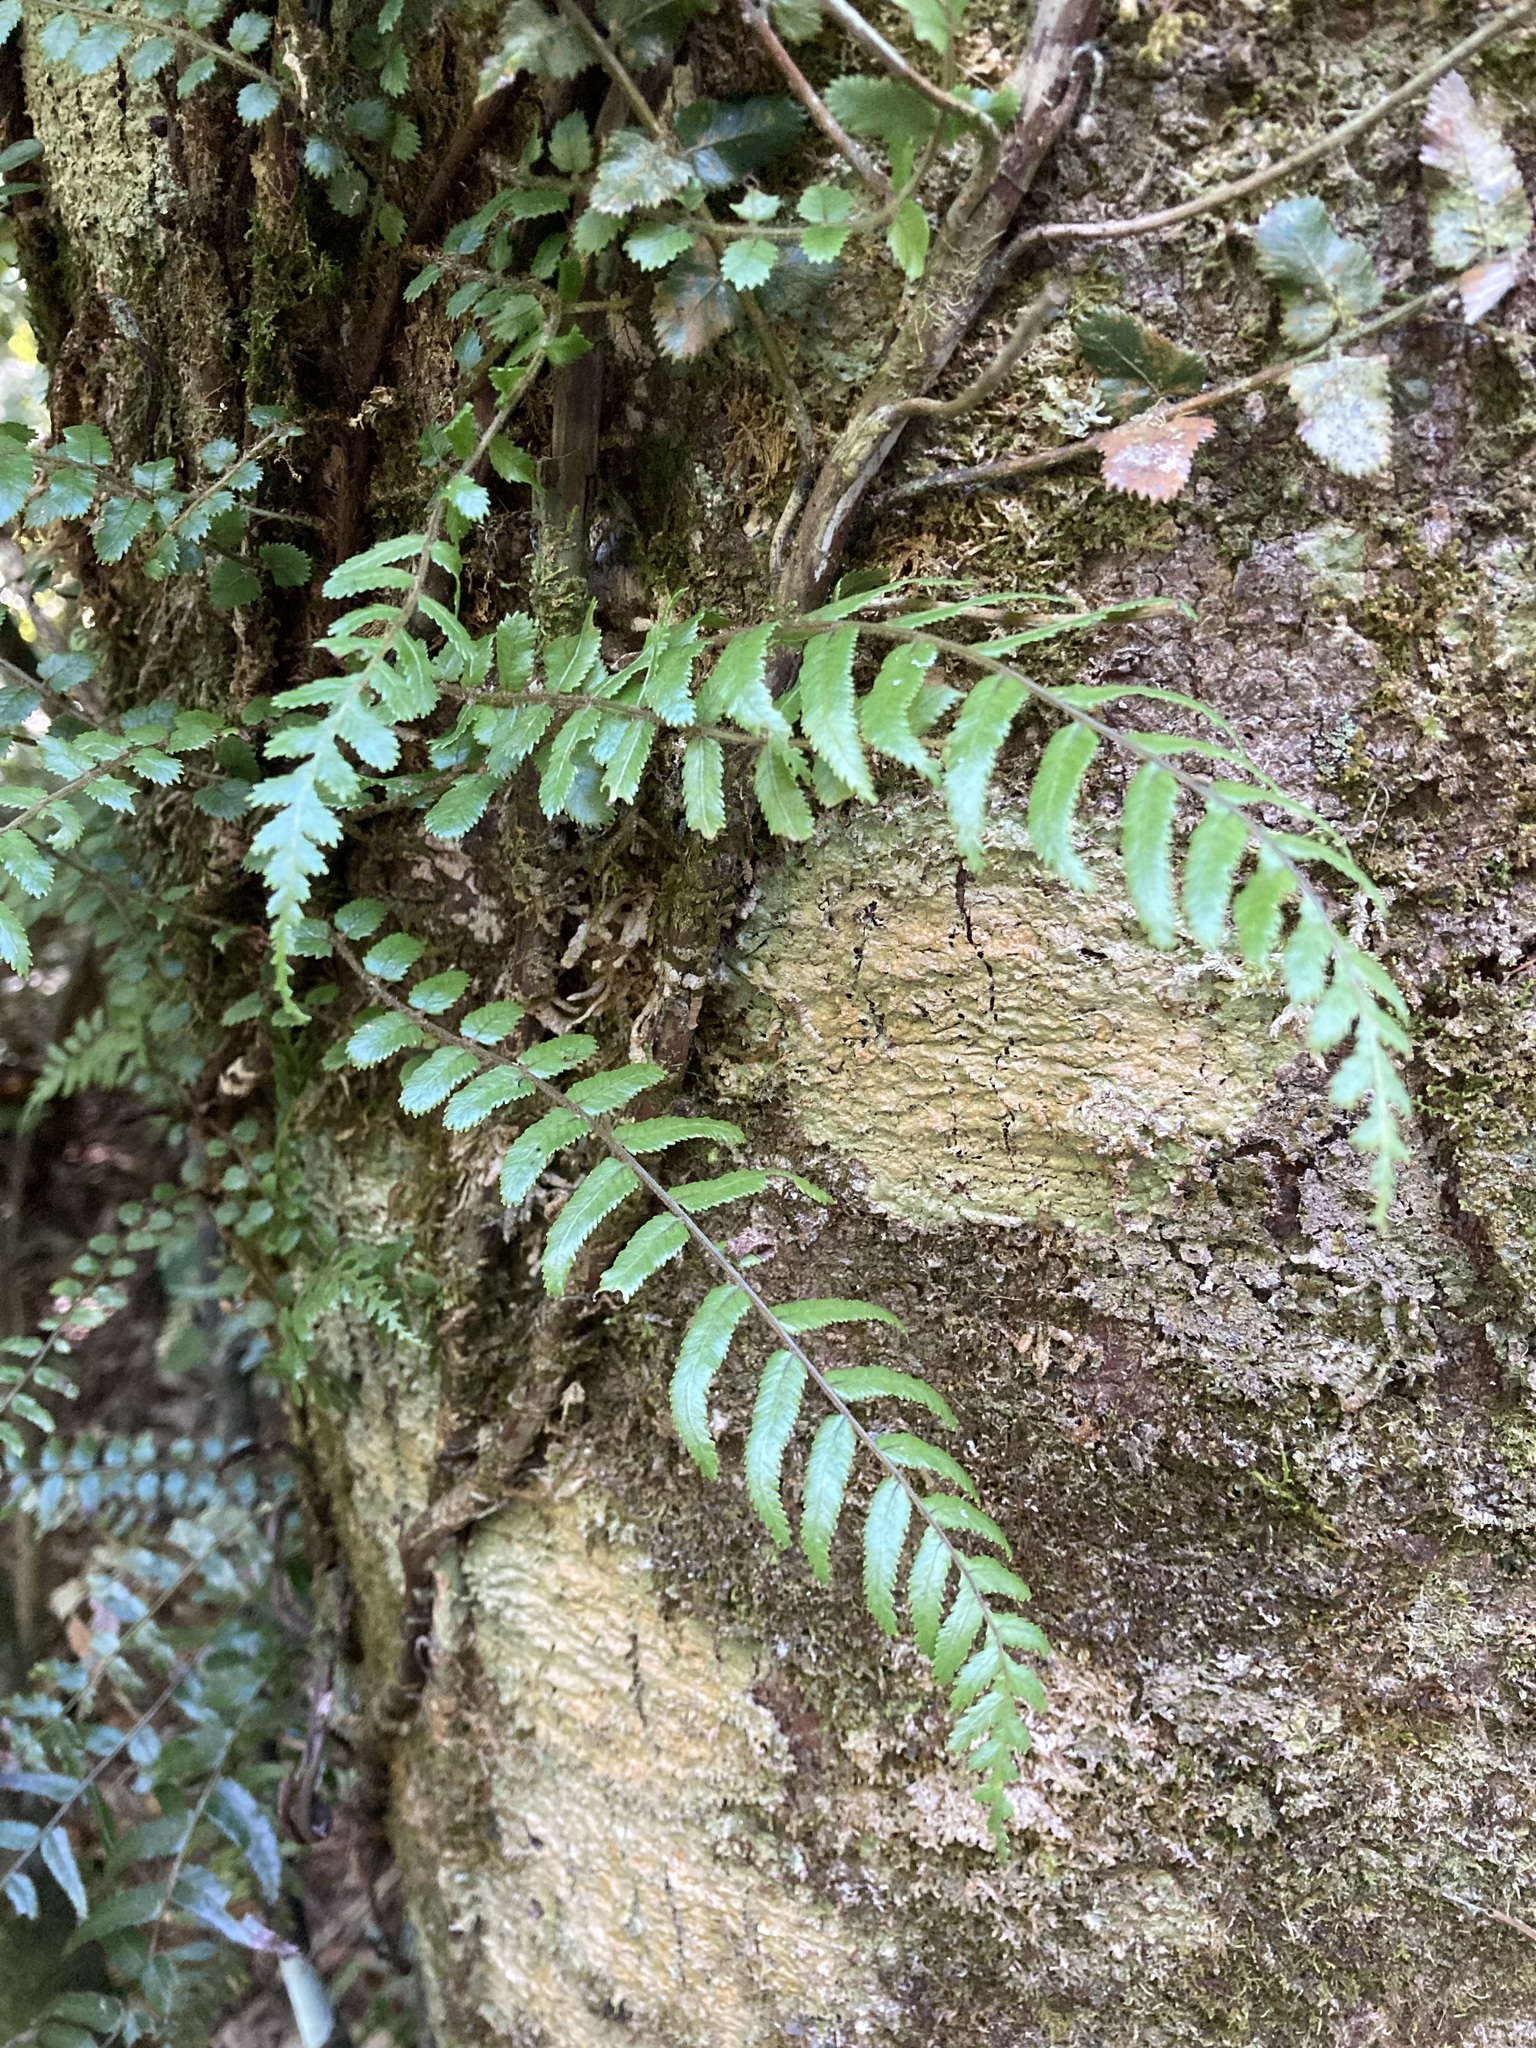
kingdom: Plantae
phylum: Tracheophyta
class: Polypodiopsida
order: Polypodiales
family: Blechnaceae
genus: Icarus
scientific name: Icarus filiformis
